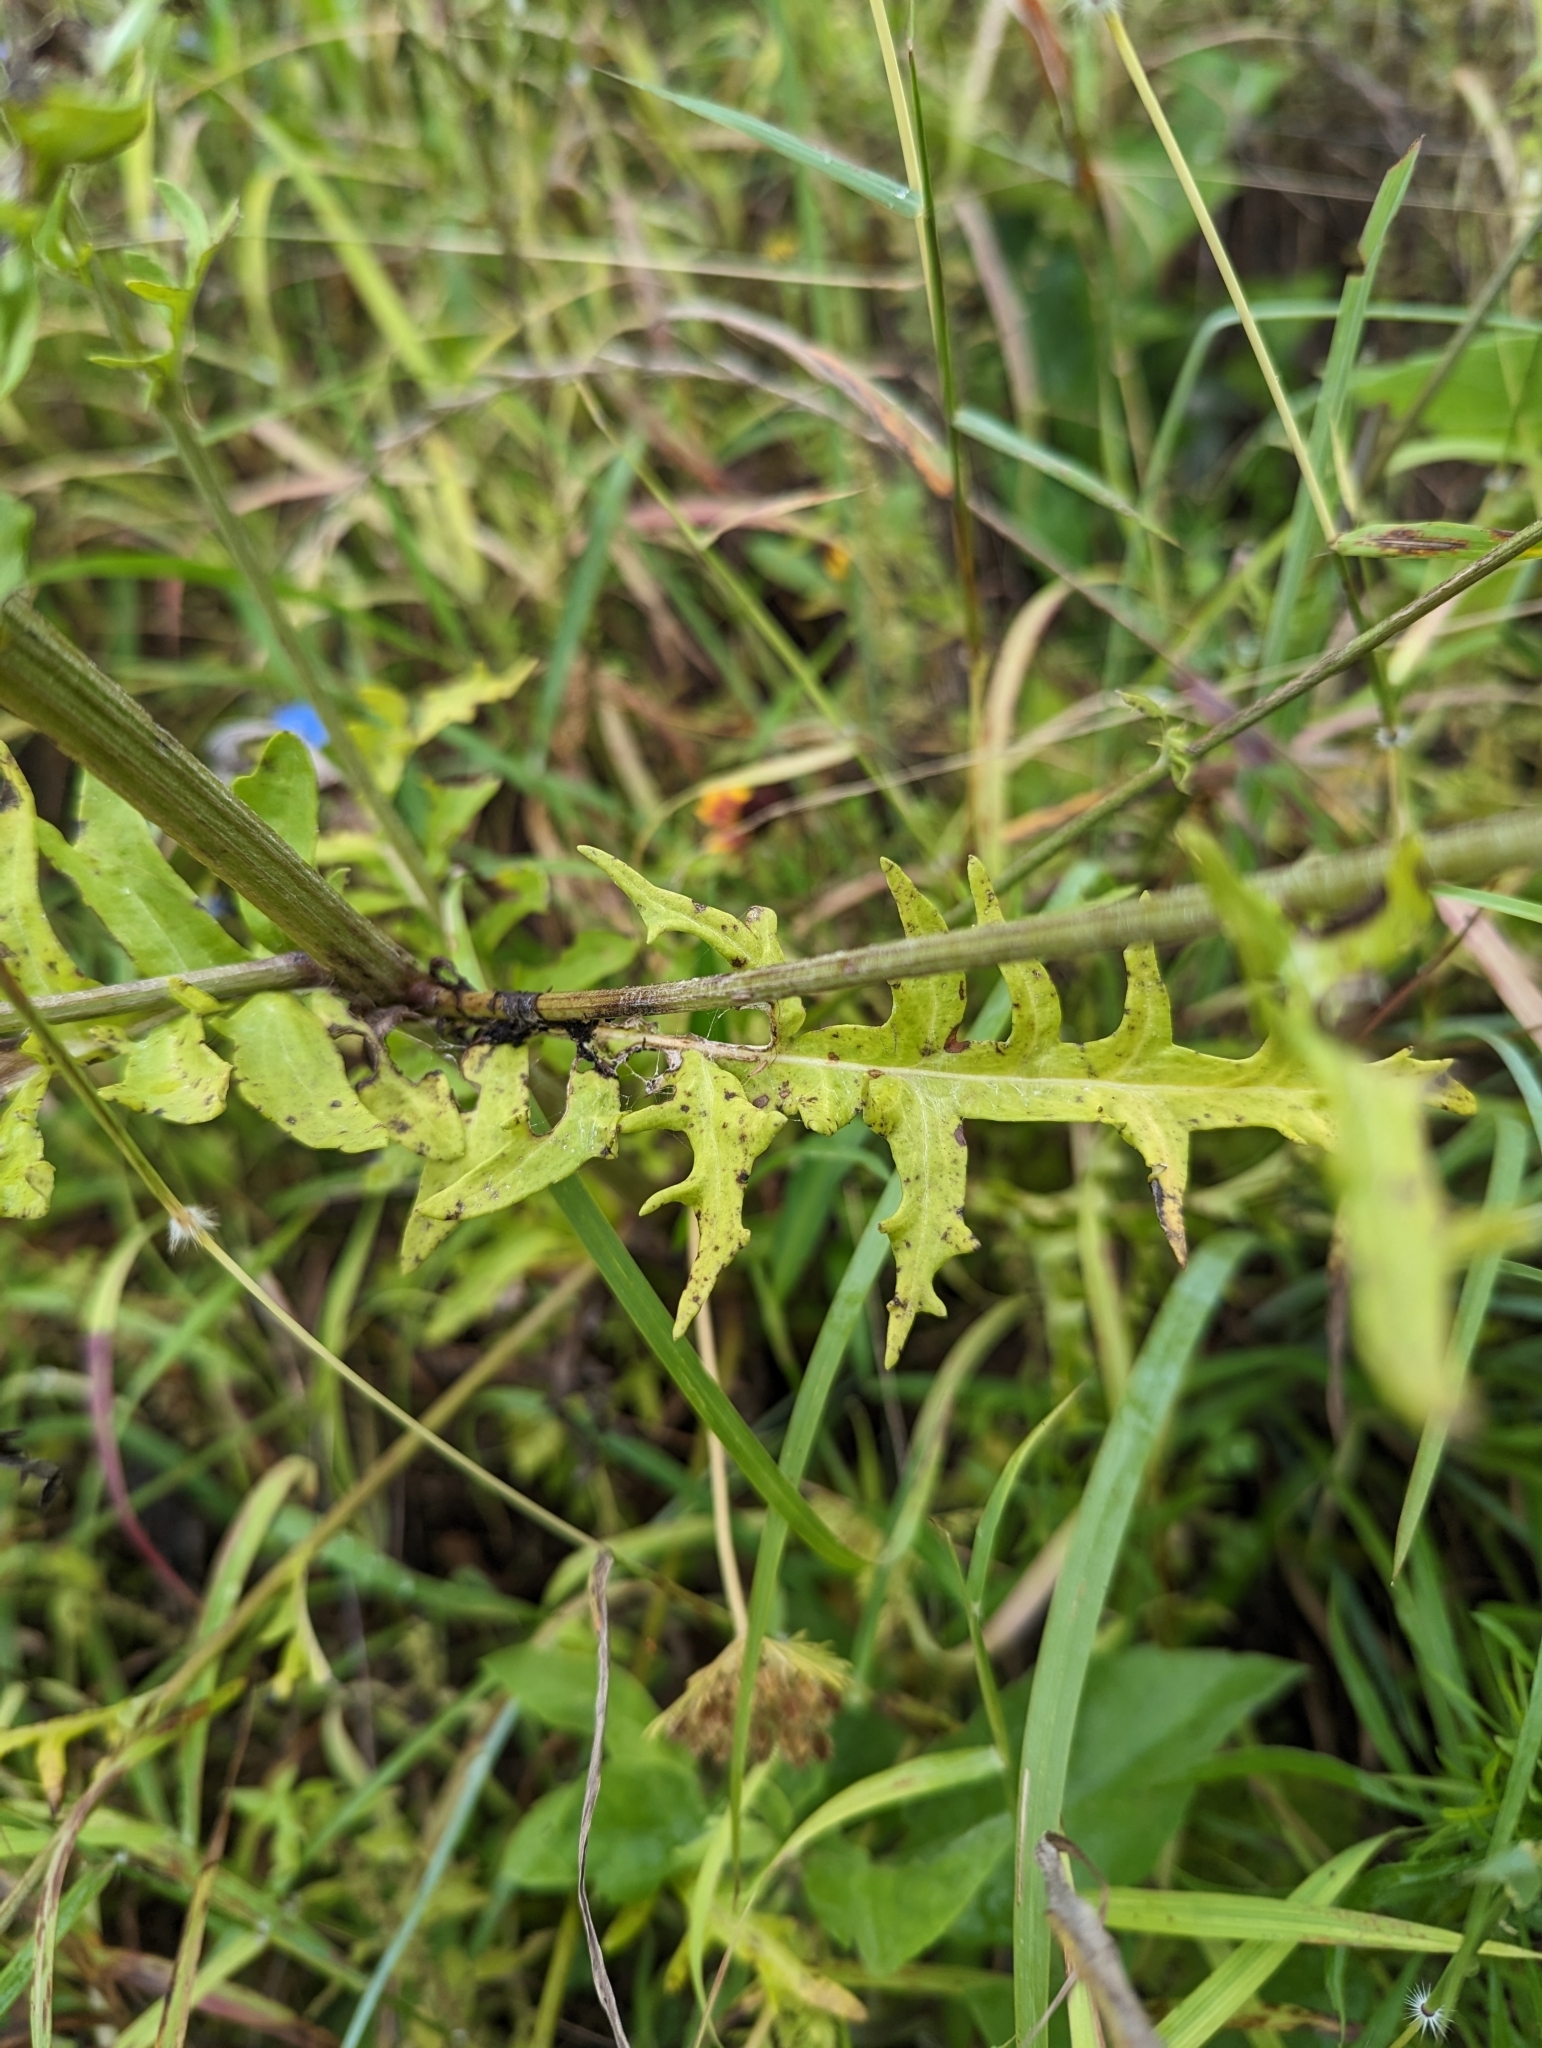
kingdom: Plantae
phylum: Tracheophyta
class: Magnoliopsida
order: Asterales
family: Asteraceae
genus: Hymenopappus
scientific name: Hymenopappus artemisiifolius
